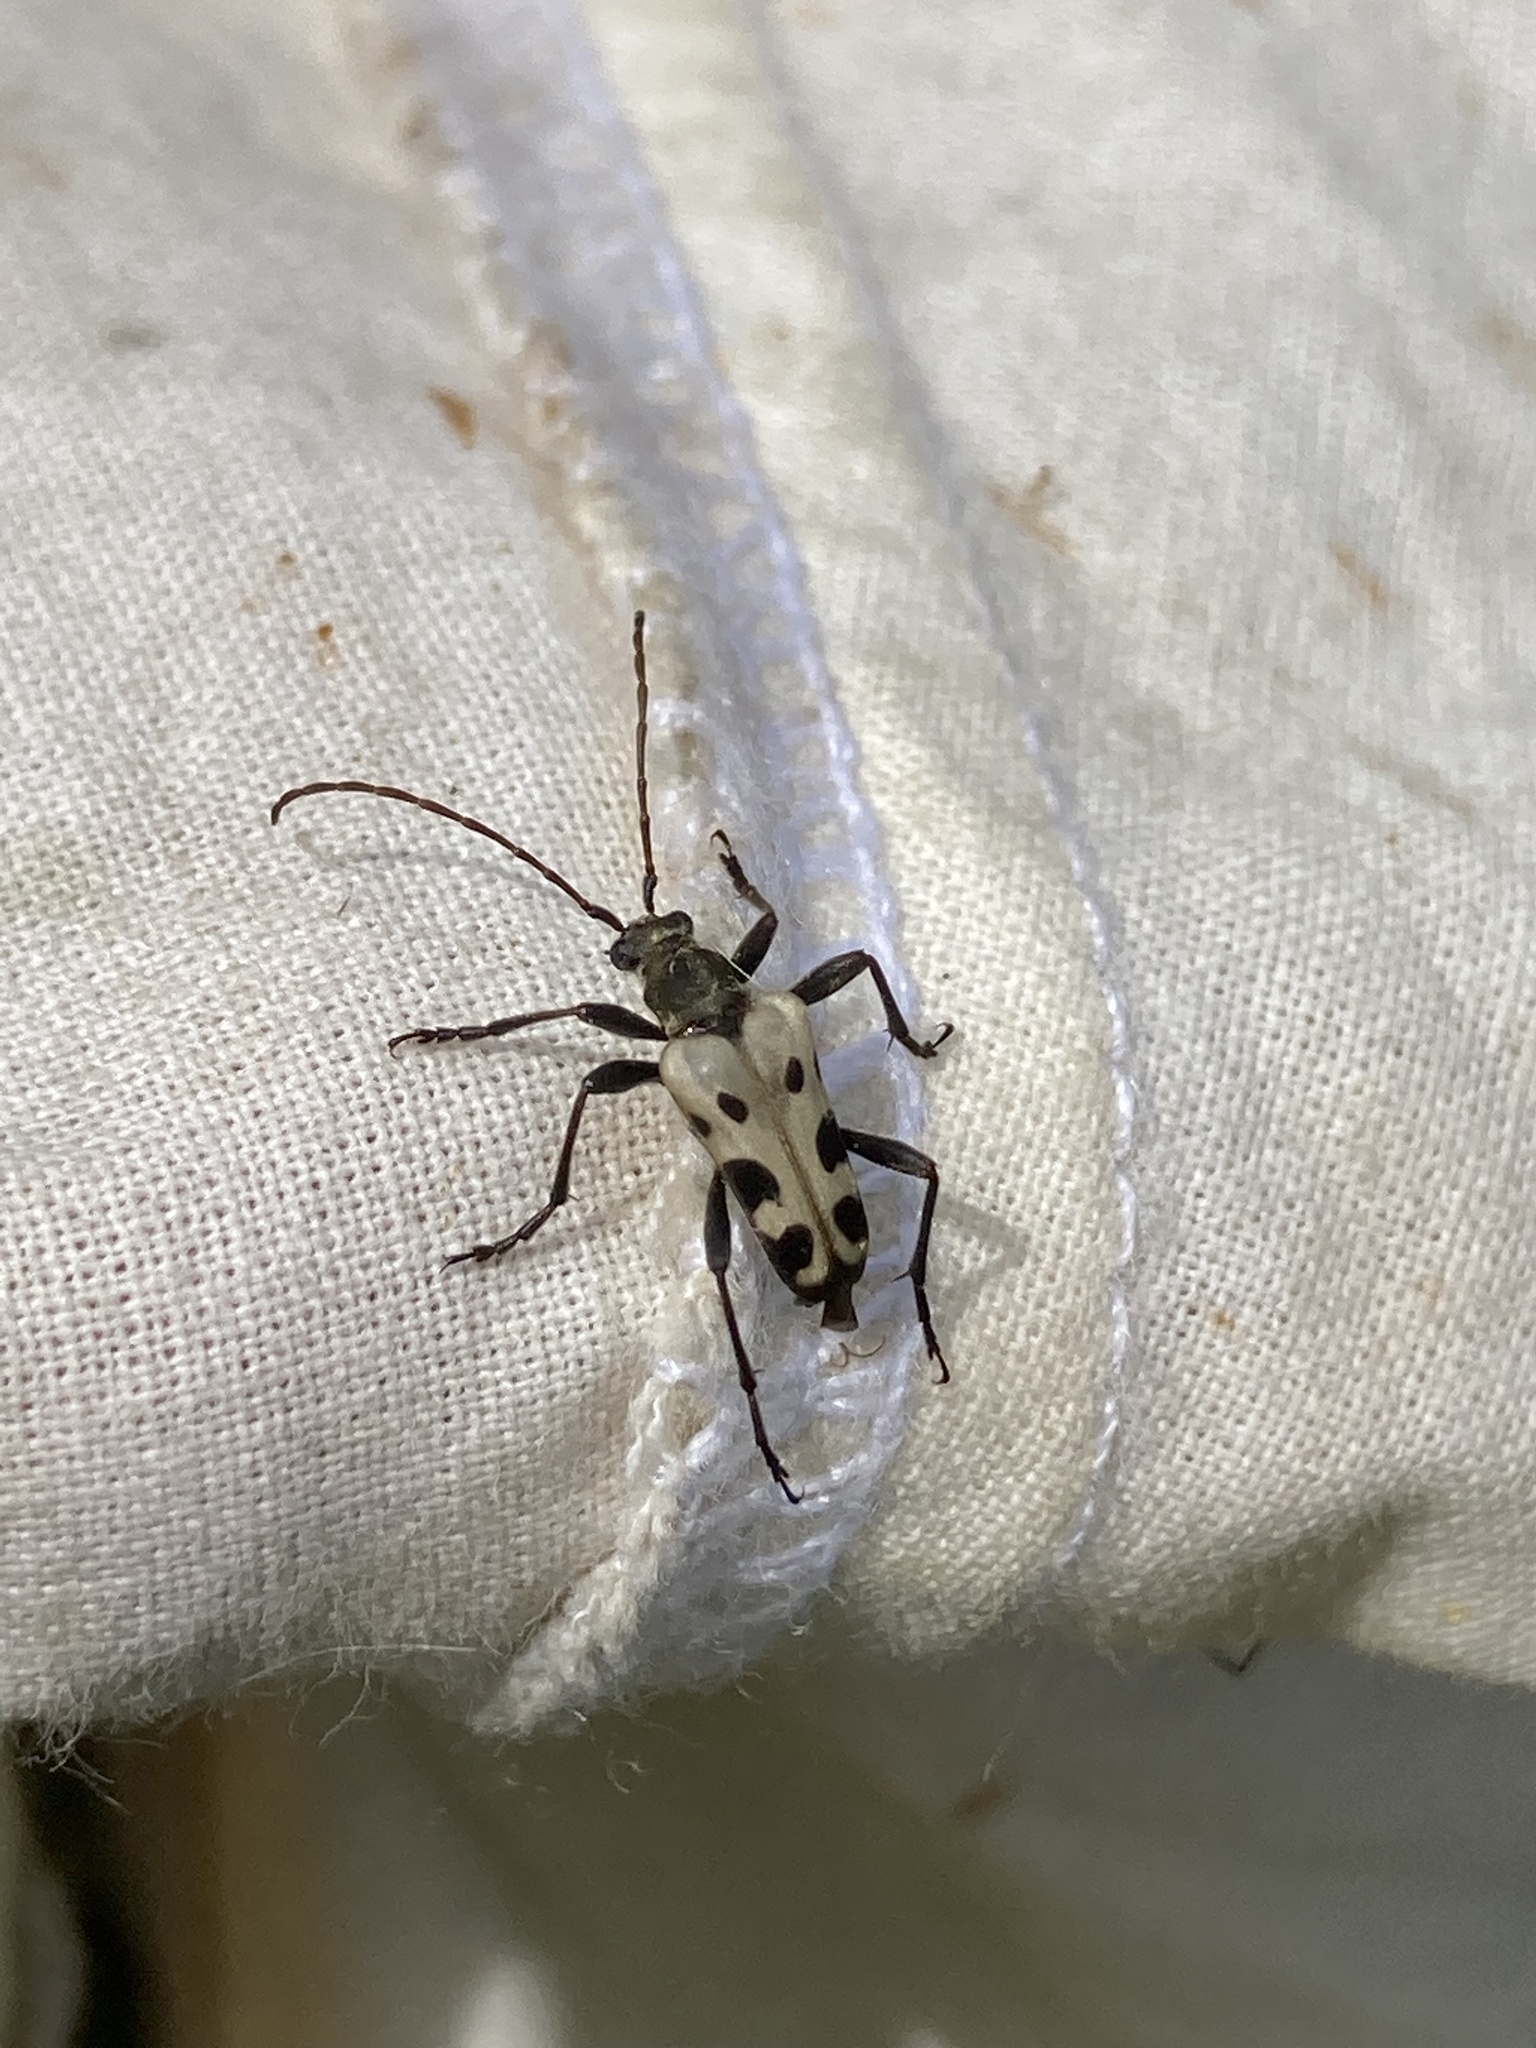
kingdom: Animalia
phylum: Arthropoda
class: Insecta
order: Coleoptera
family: Cerambycidae
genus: Evodinus
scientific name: Evodinus monticola
